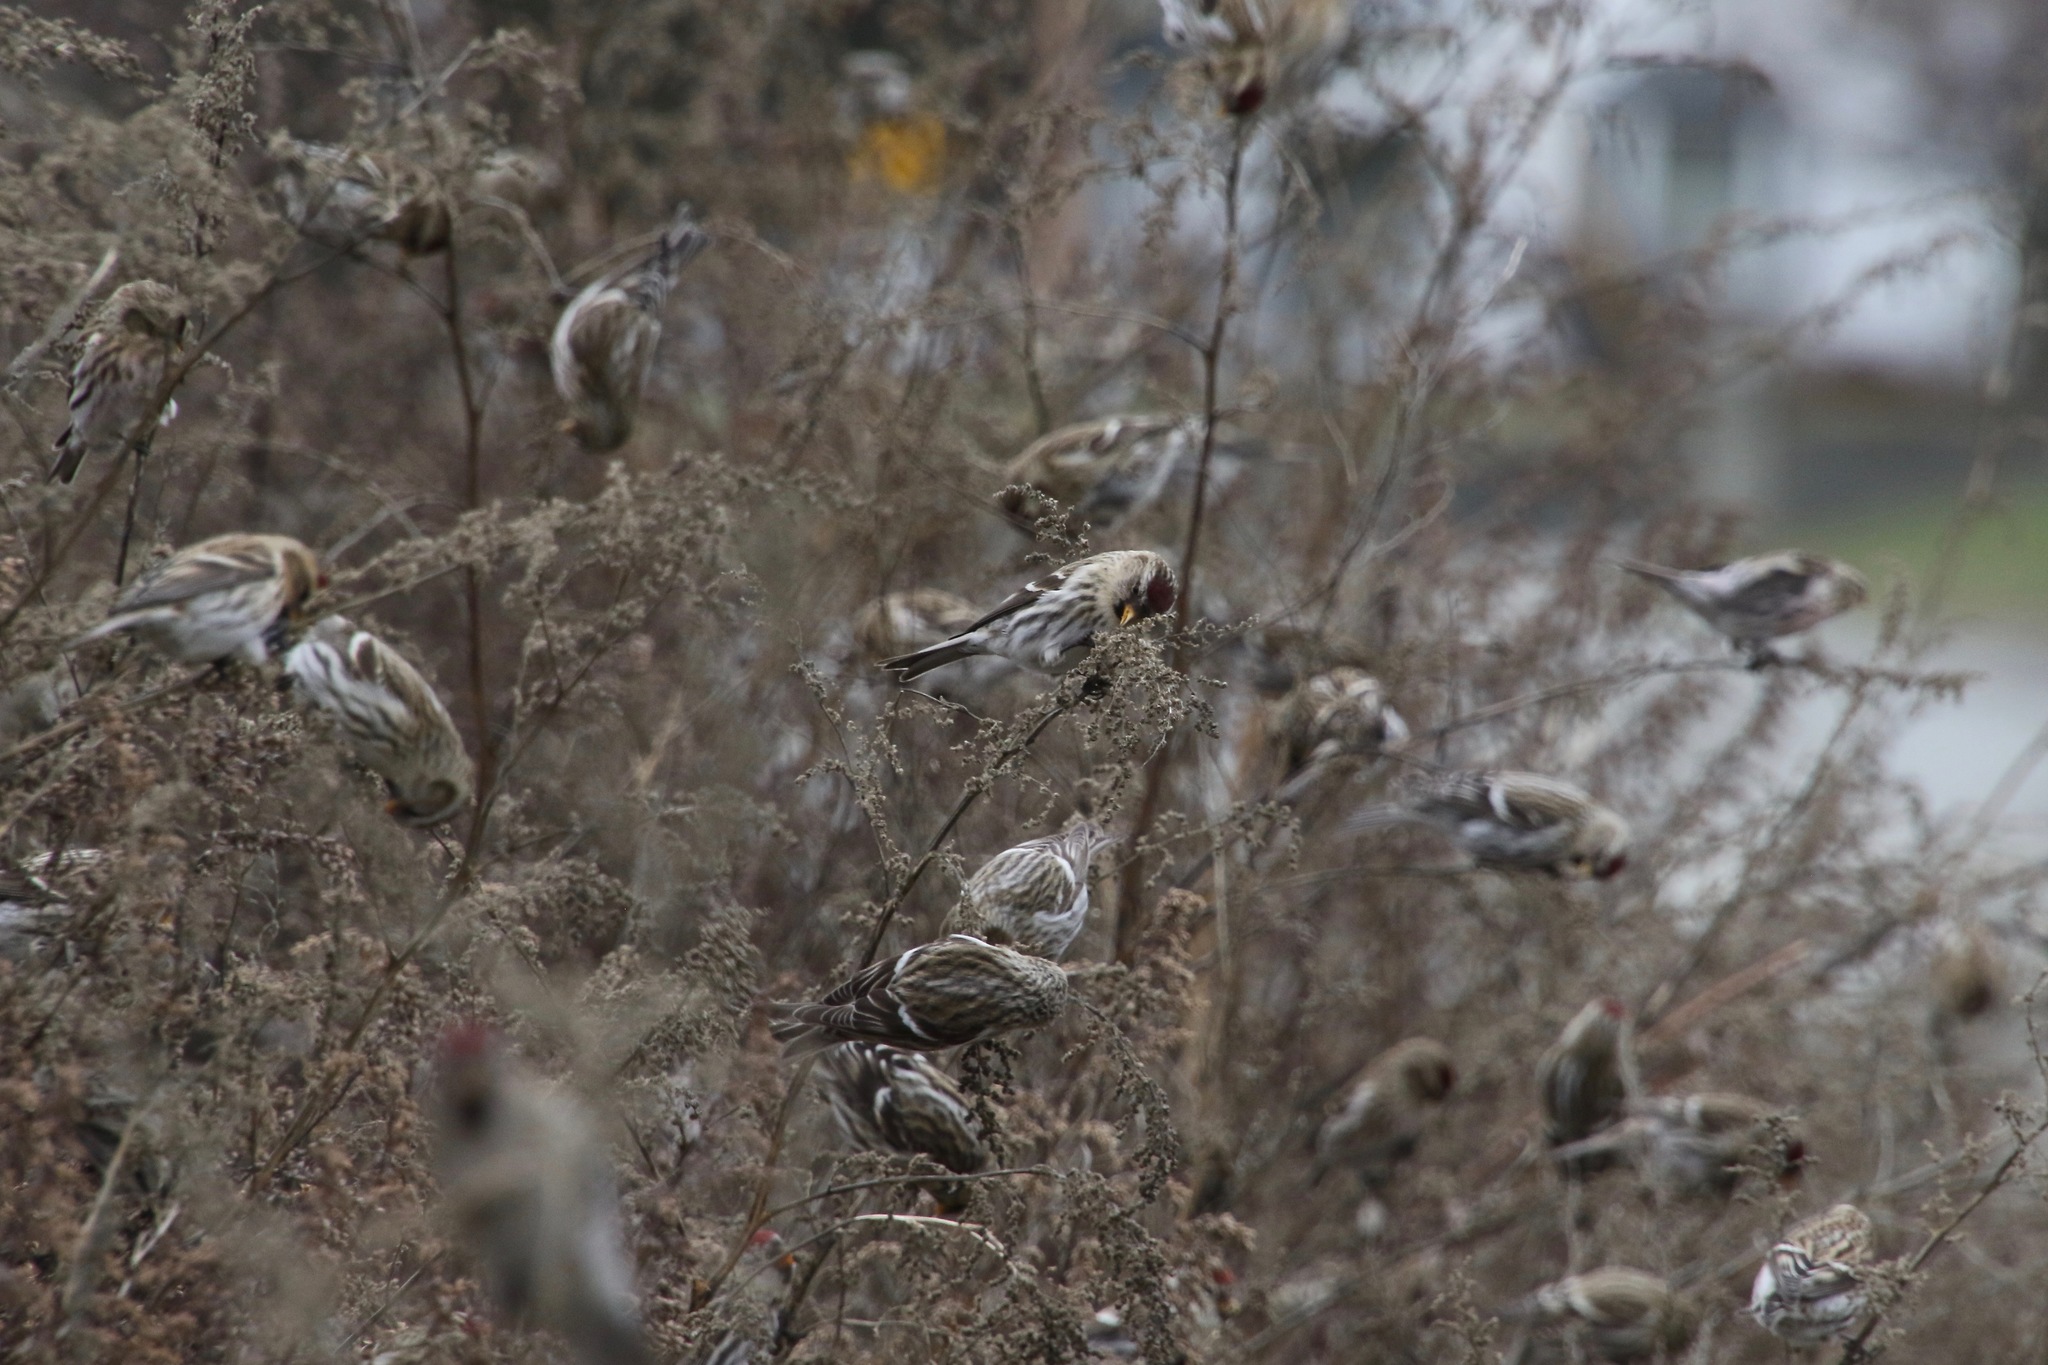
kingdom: Animalia
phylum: Chordata
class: Aves
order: Passeriformes
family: Fringillidae
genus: Acanthis
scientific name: Acanthis flammea
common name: Common redpoll
